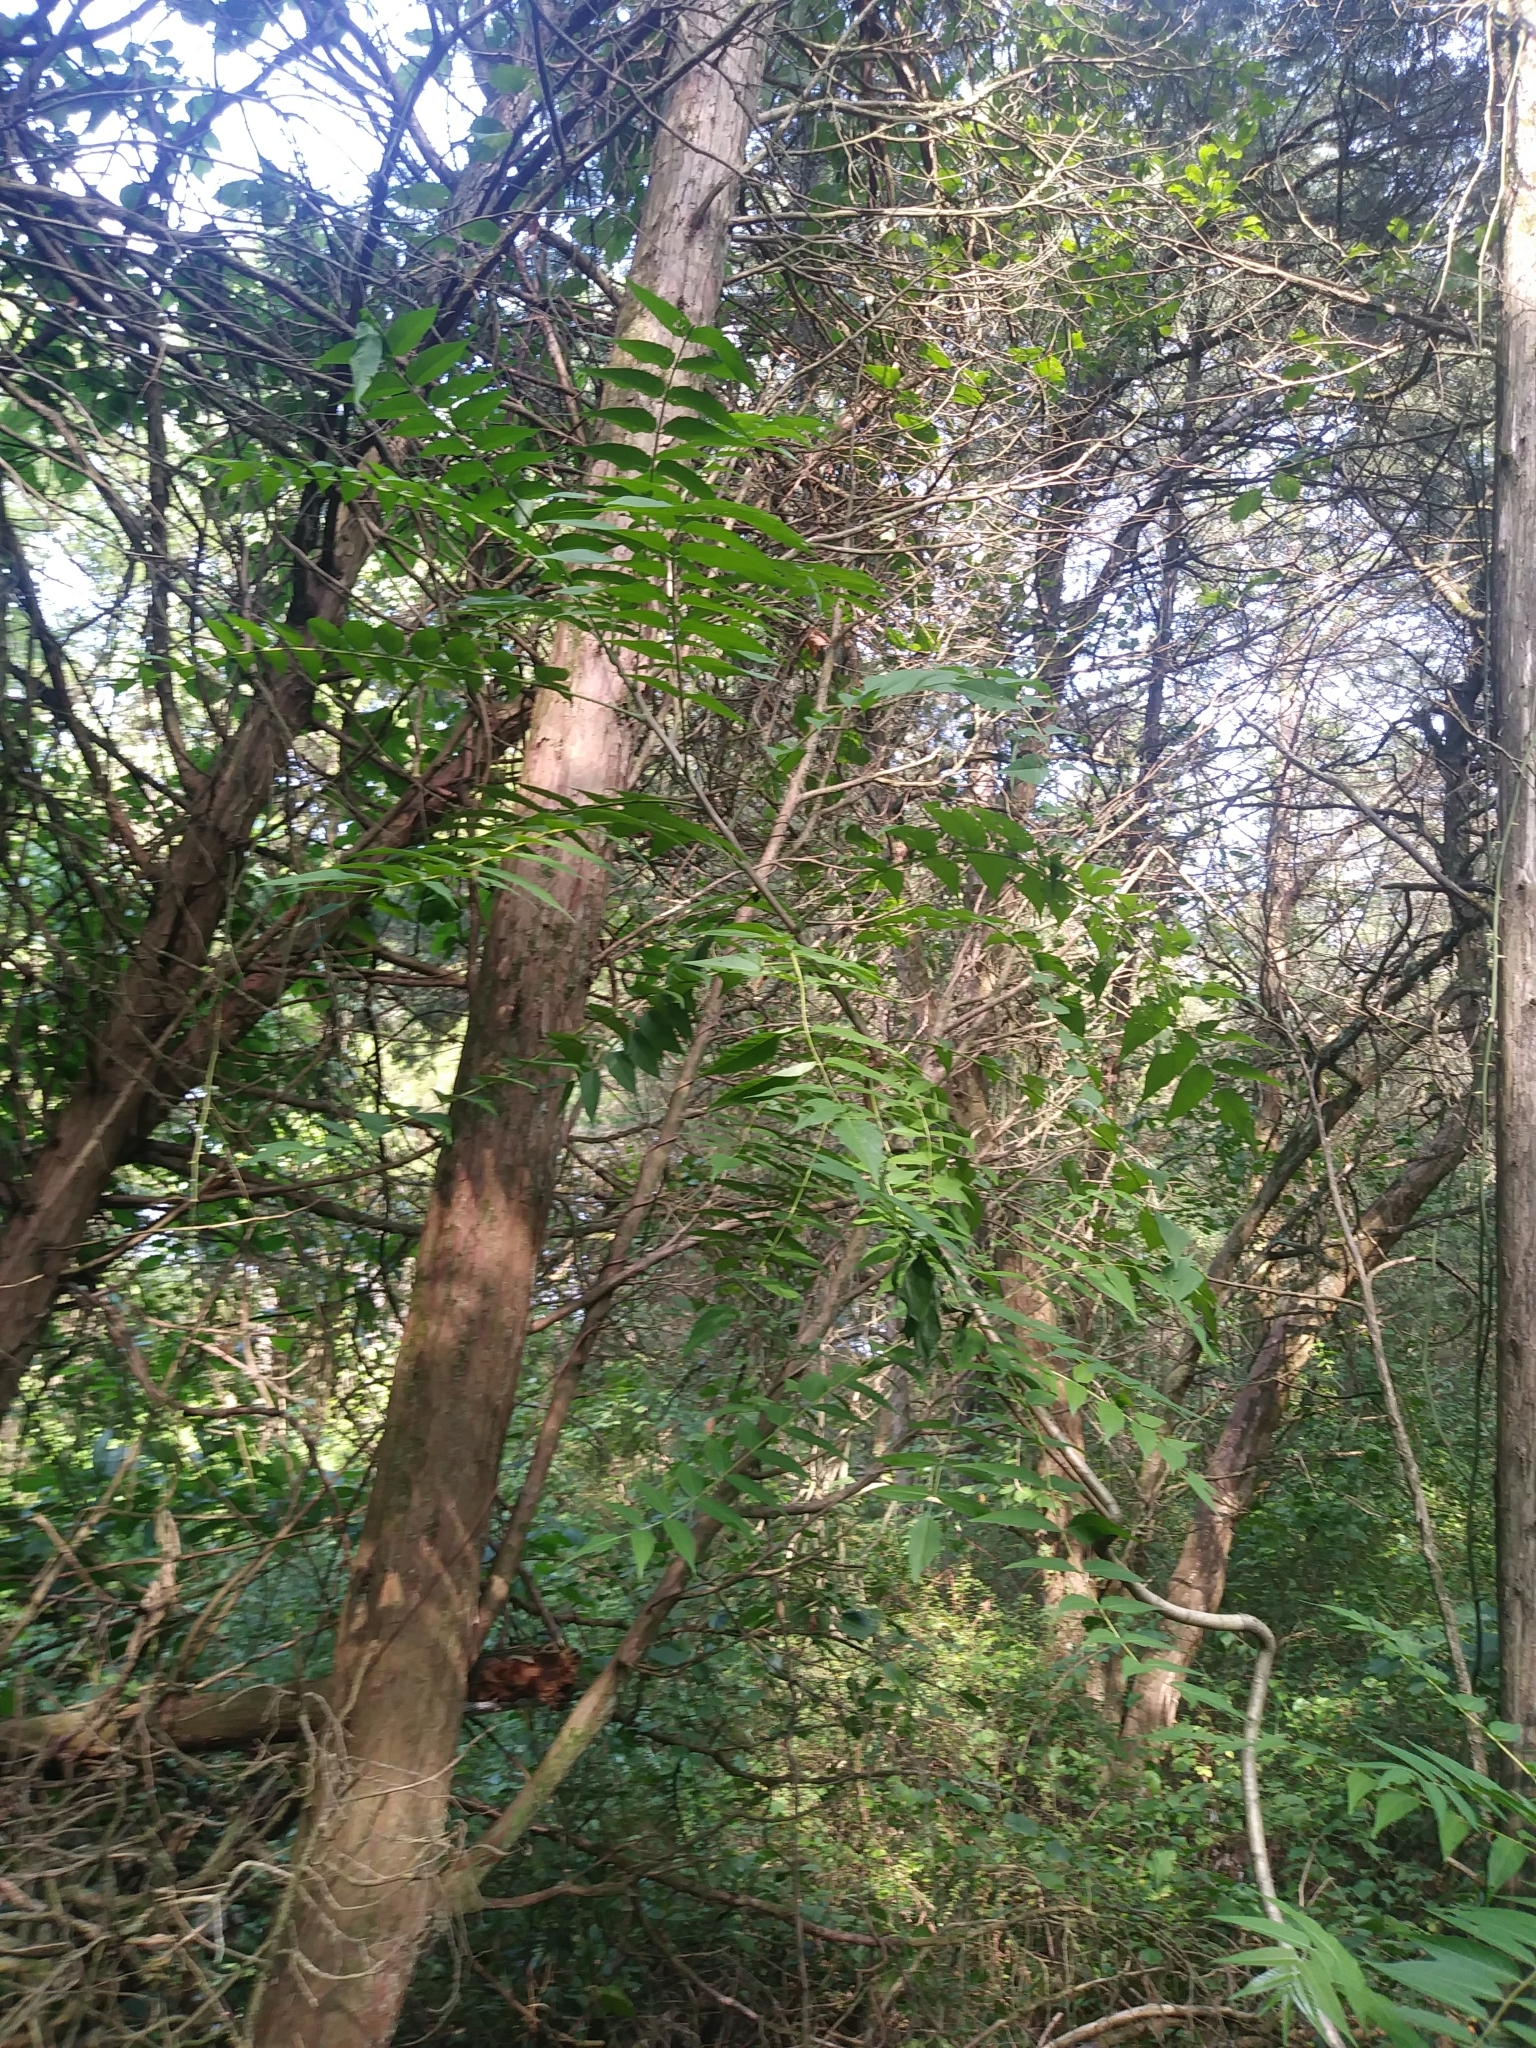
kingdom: Plantae
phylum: Tracheophyta
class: Magnoliopsida
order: Sapindales
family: Simaroubaceae
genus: Ailanthus
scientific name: Ailanthus altissima
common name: Tree-of-heaven
